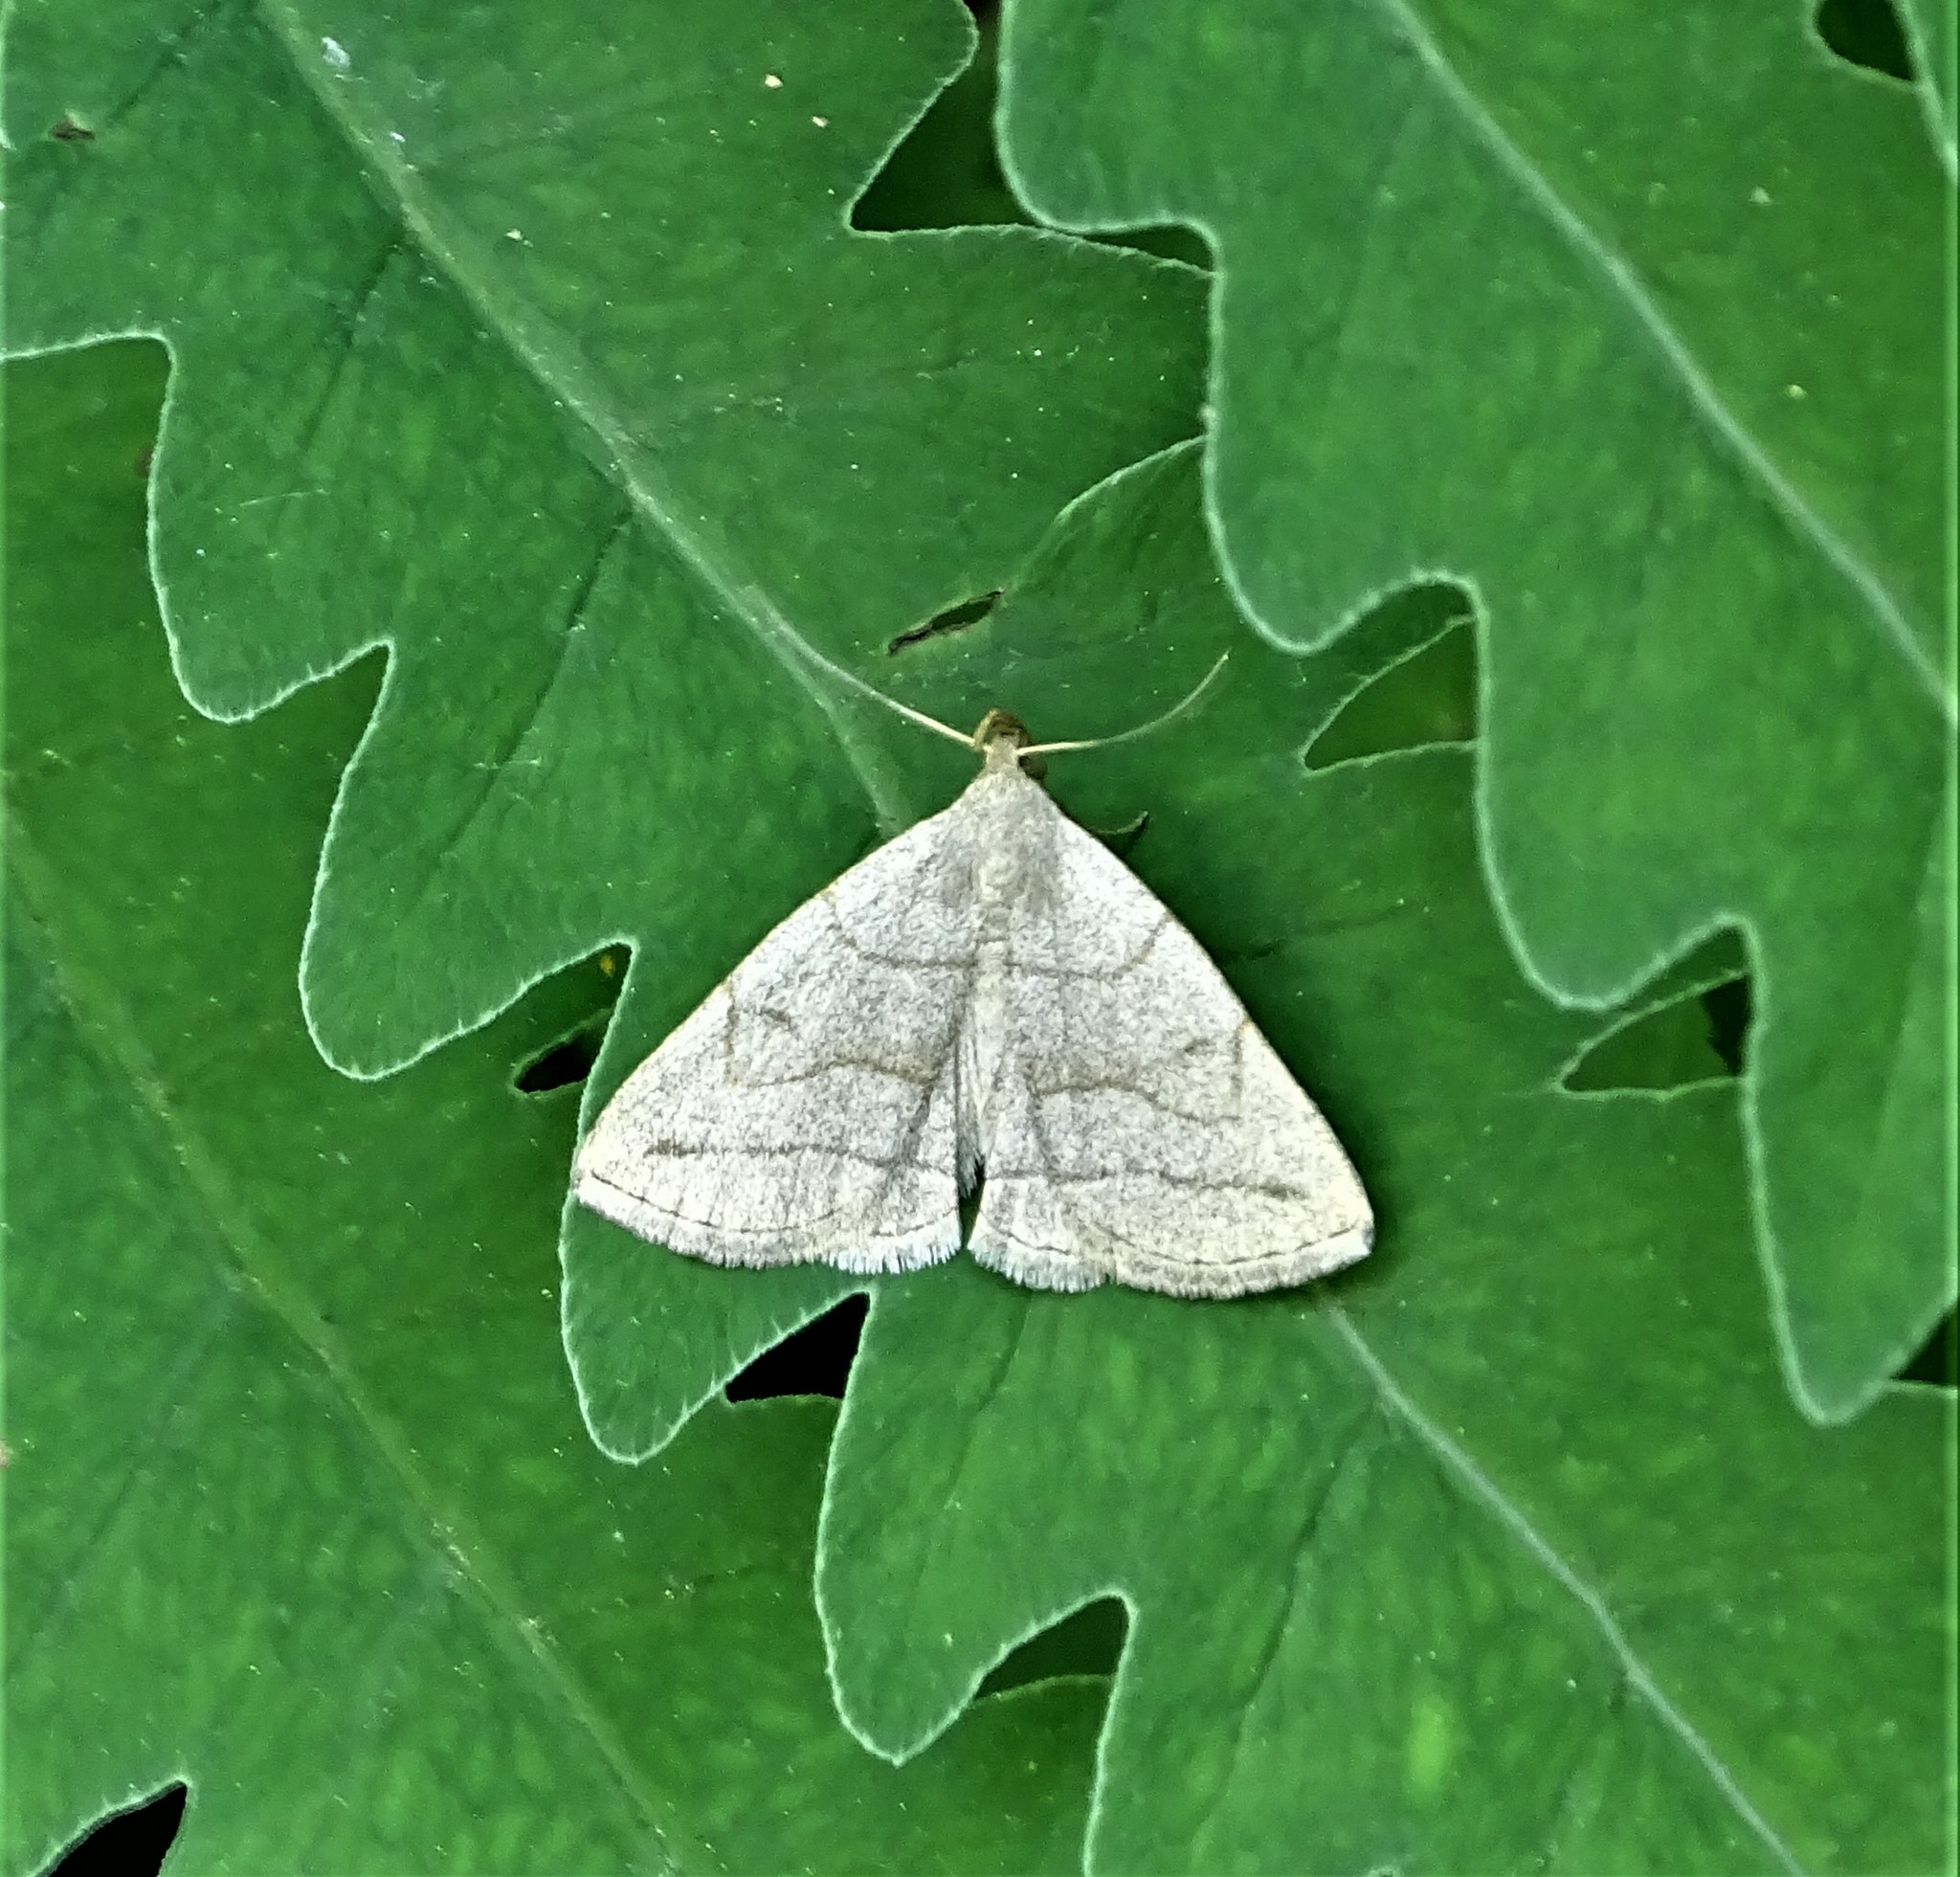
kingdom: Animalia
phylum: Arthropoda
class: Insecta
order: Lepidoptera
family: Erebidae
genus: Zanclognatha
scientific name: Zanclognatha pedipilalis
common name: Grayish fan-foot
